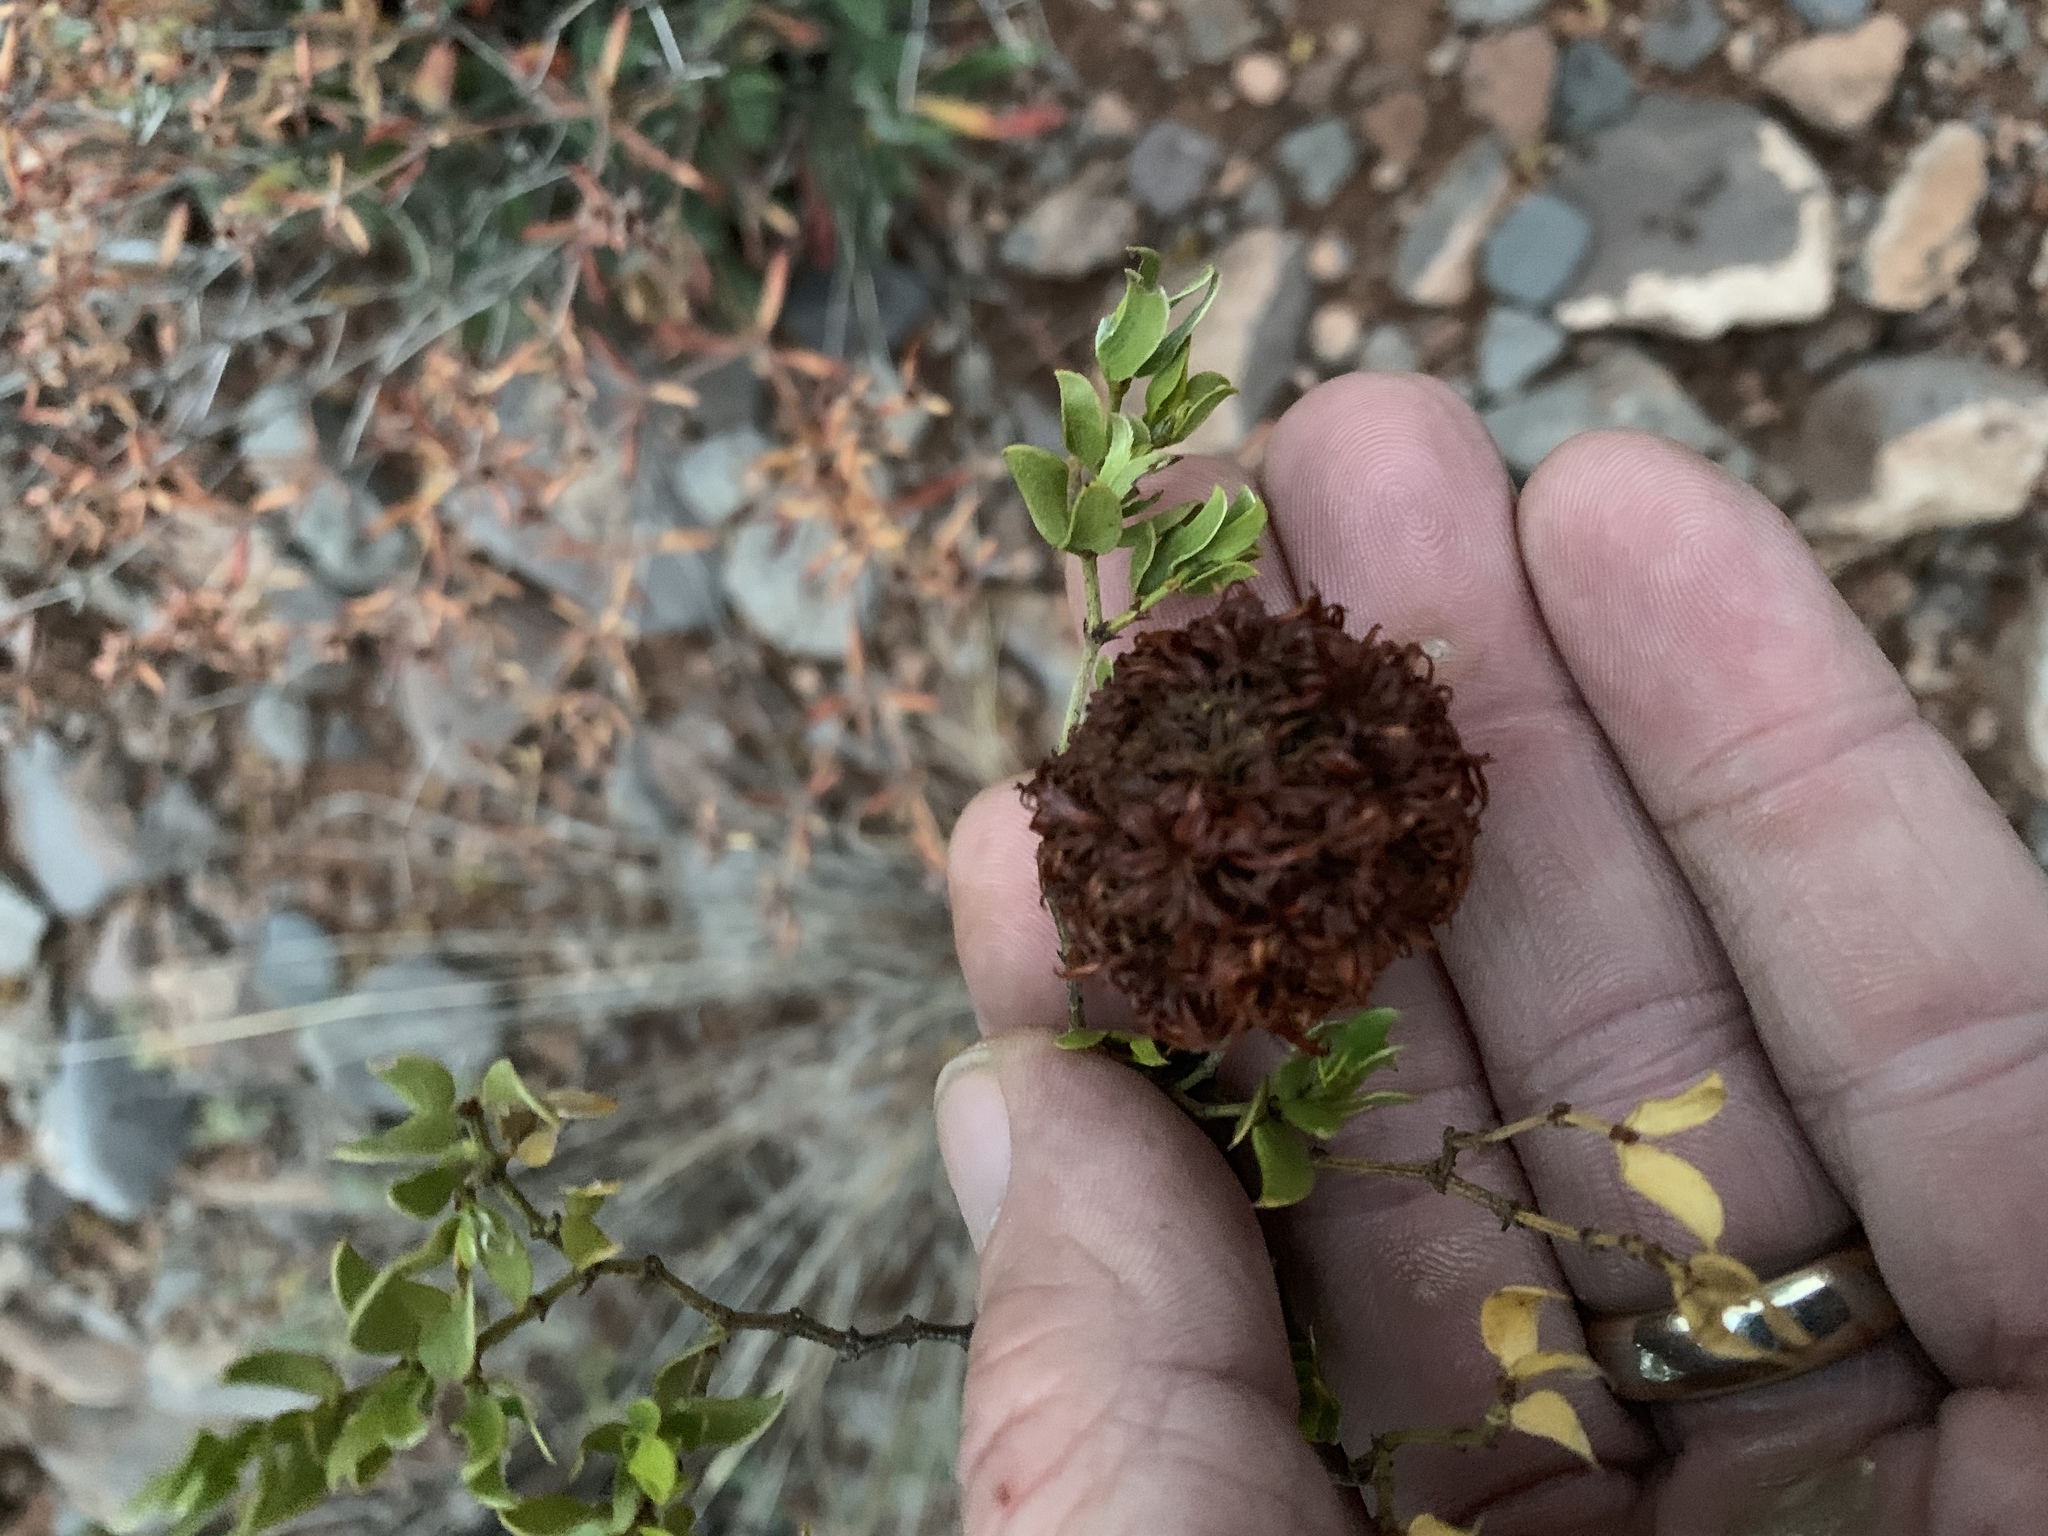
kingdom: Animalia
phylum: Arthropoda
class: Insecta
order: Diptera
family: Cecidomyiidae
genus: Asphondylia
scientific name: Asphondylia auripila
